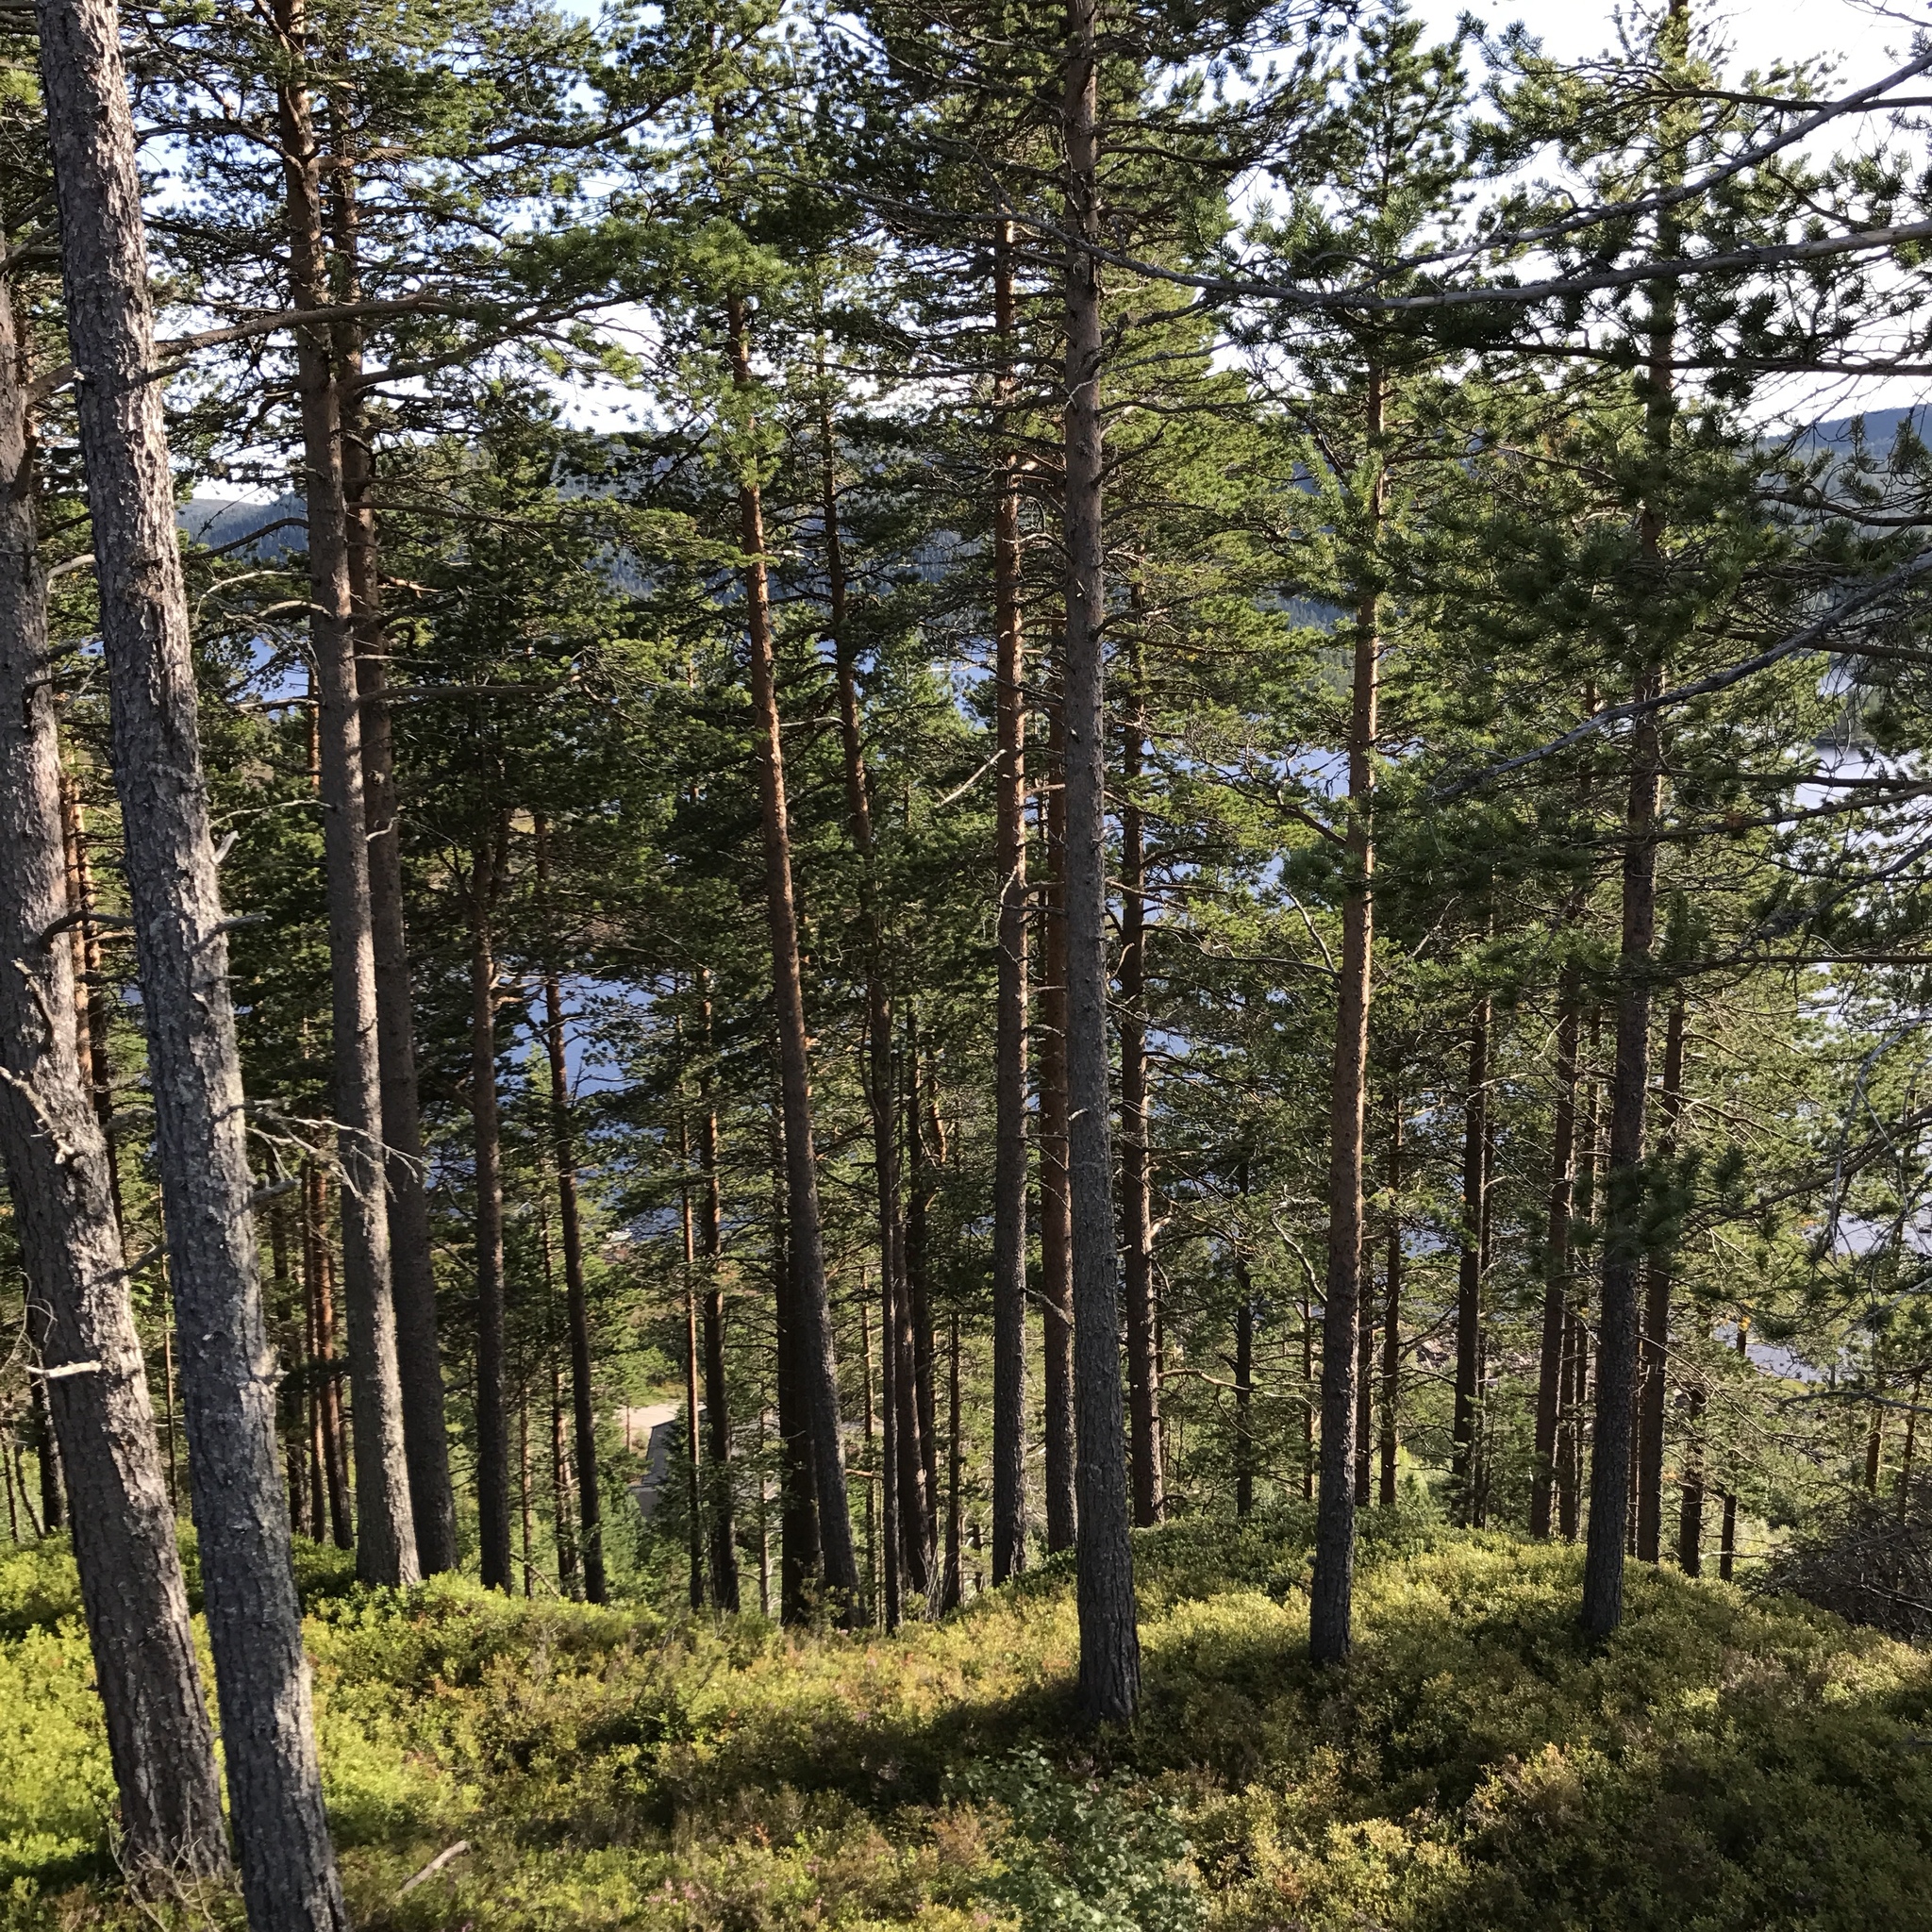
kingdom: Plantae
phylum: Tracheophyta
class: Pinopsida
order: Pinales
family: Pinaceae
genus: Pinus
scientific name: Pinus sylvestris
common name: Scots pine
